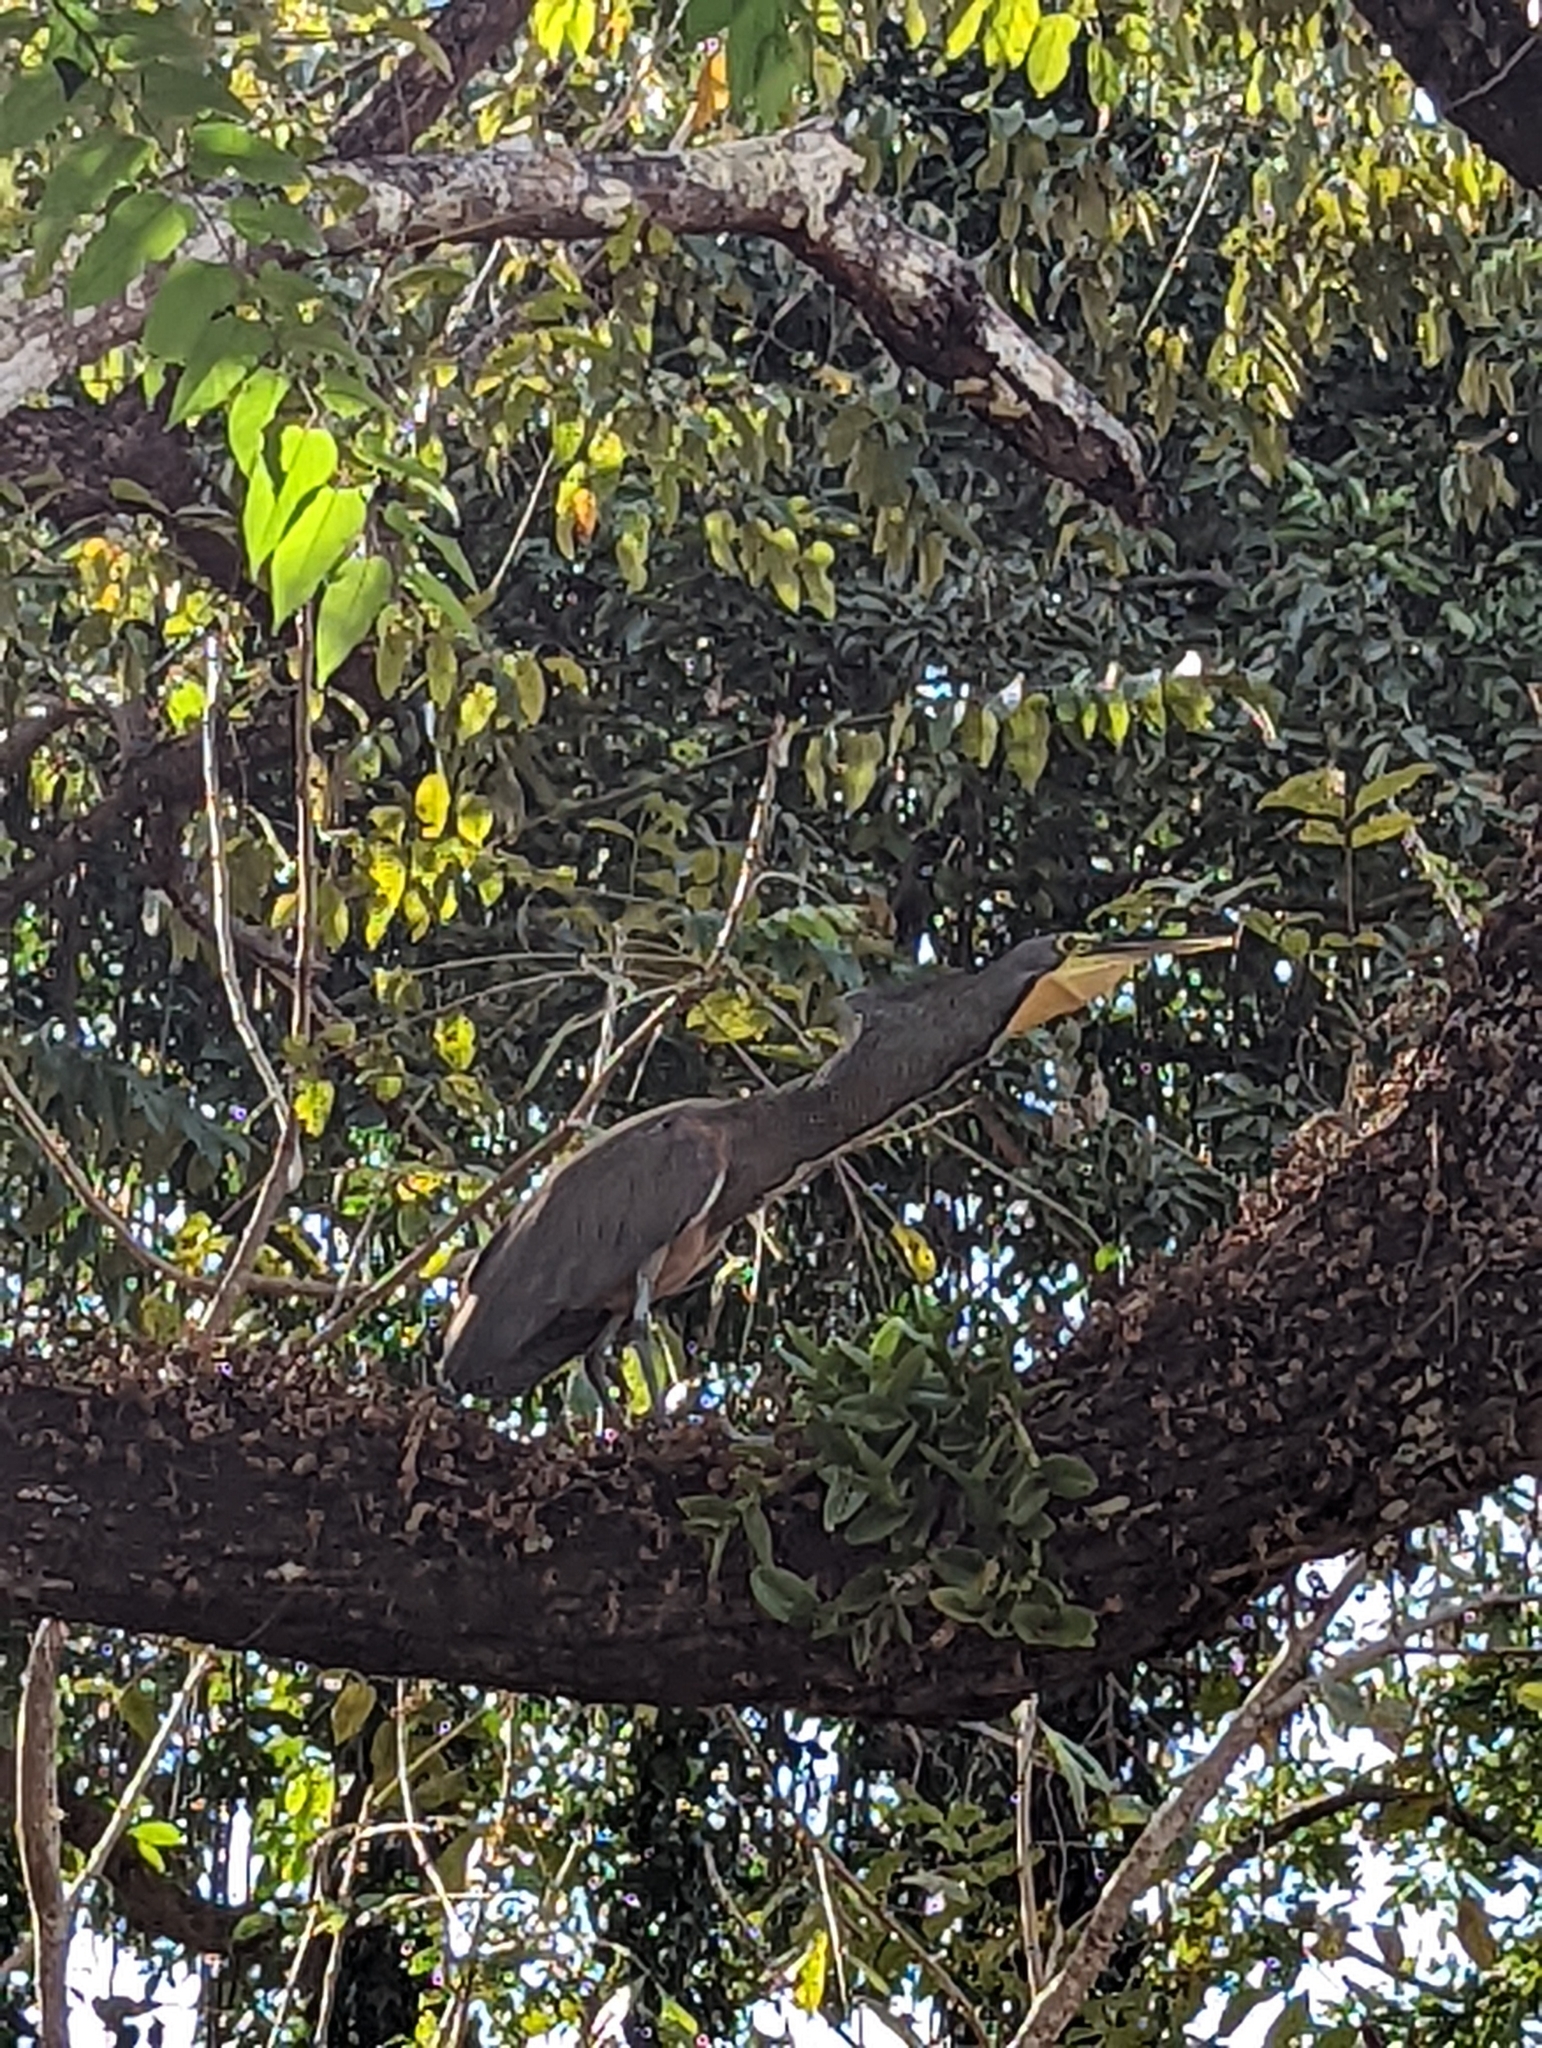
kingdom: Animalia
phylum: Chordata
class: Aves
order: Pelecaniformes
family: Ardeidae
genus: Tigrisoma
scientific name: Tigrisoma mexicanum
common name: Bare-throated tiger-heron
